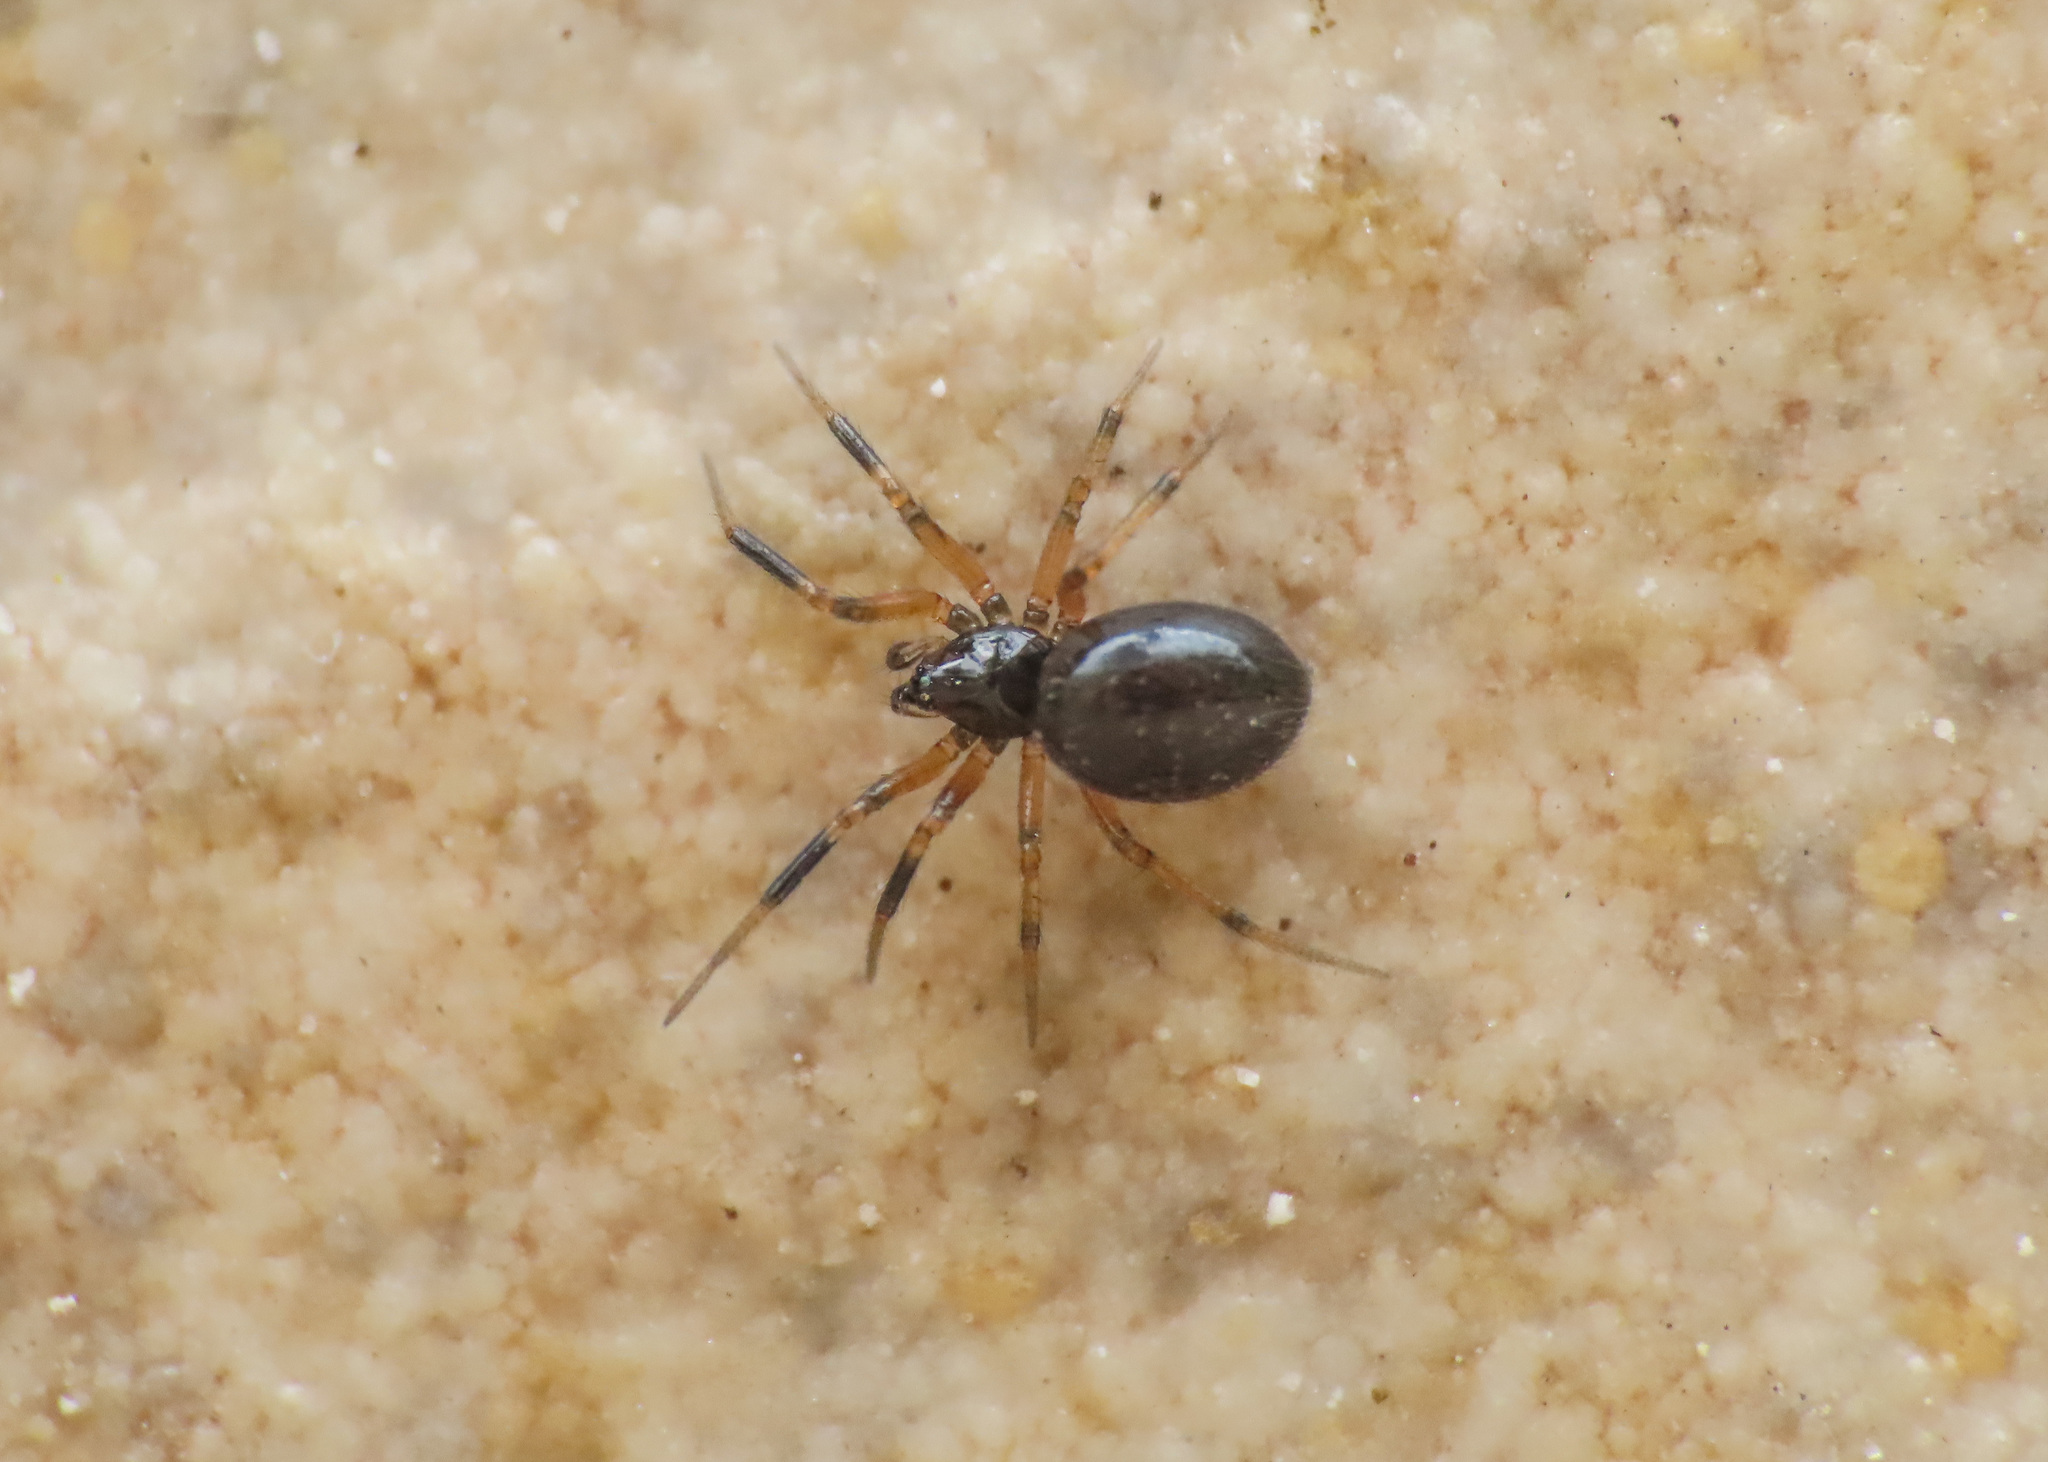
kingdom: Animalia
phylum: Arthropoda
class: Arachnida
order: Araneae
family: Theridiidae
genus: Phycosoma
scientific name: Phycosoma inornatum
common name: Silky gallows-spider
